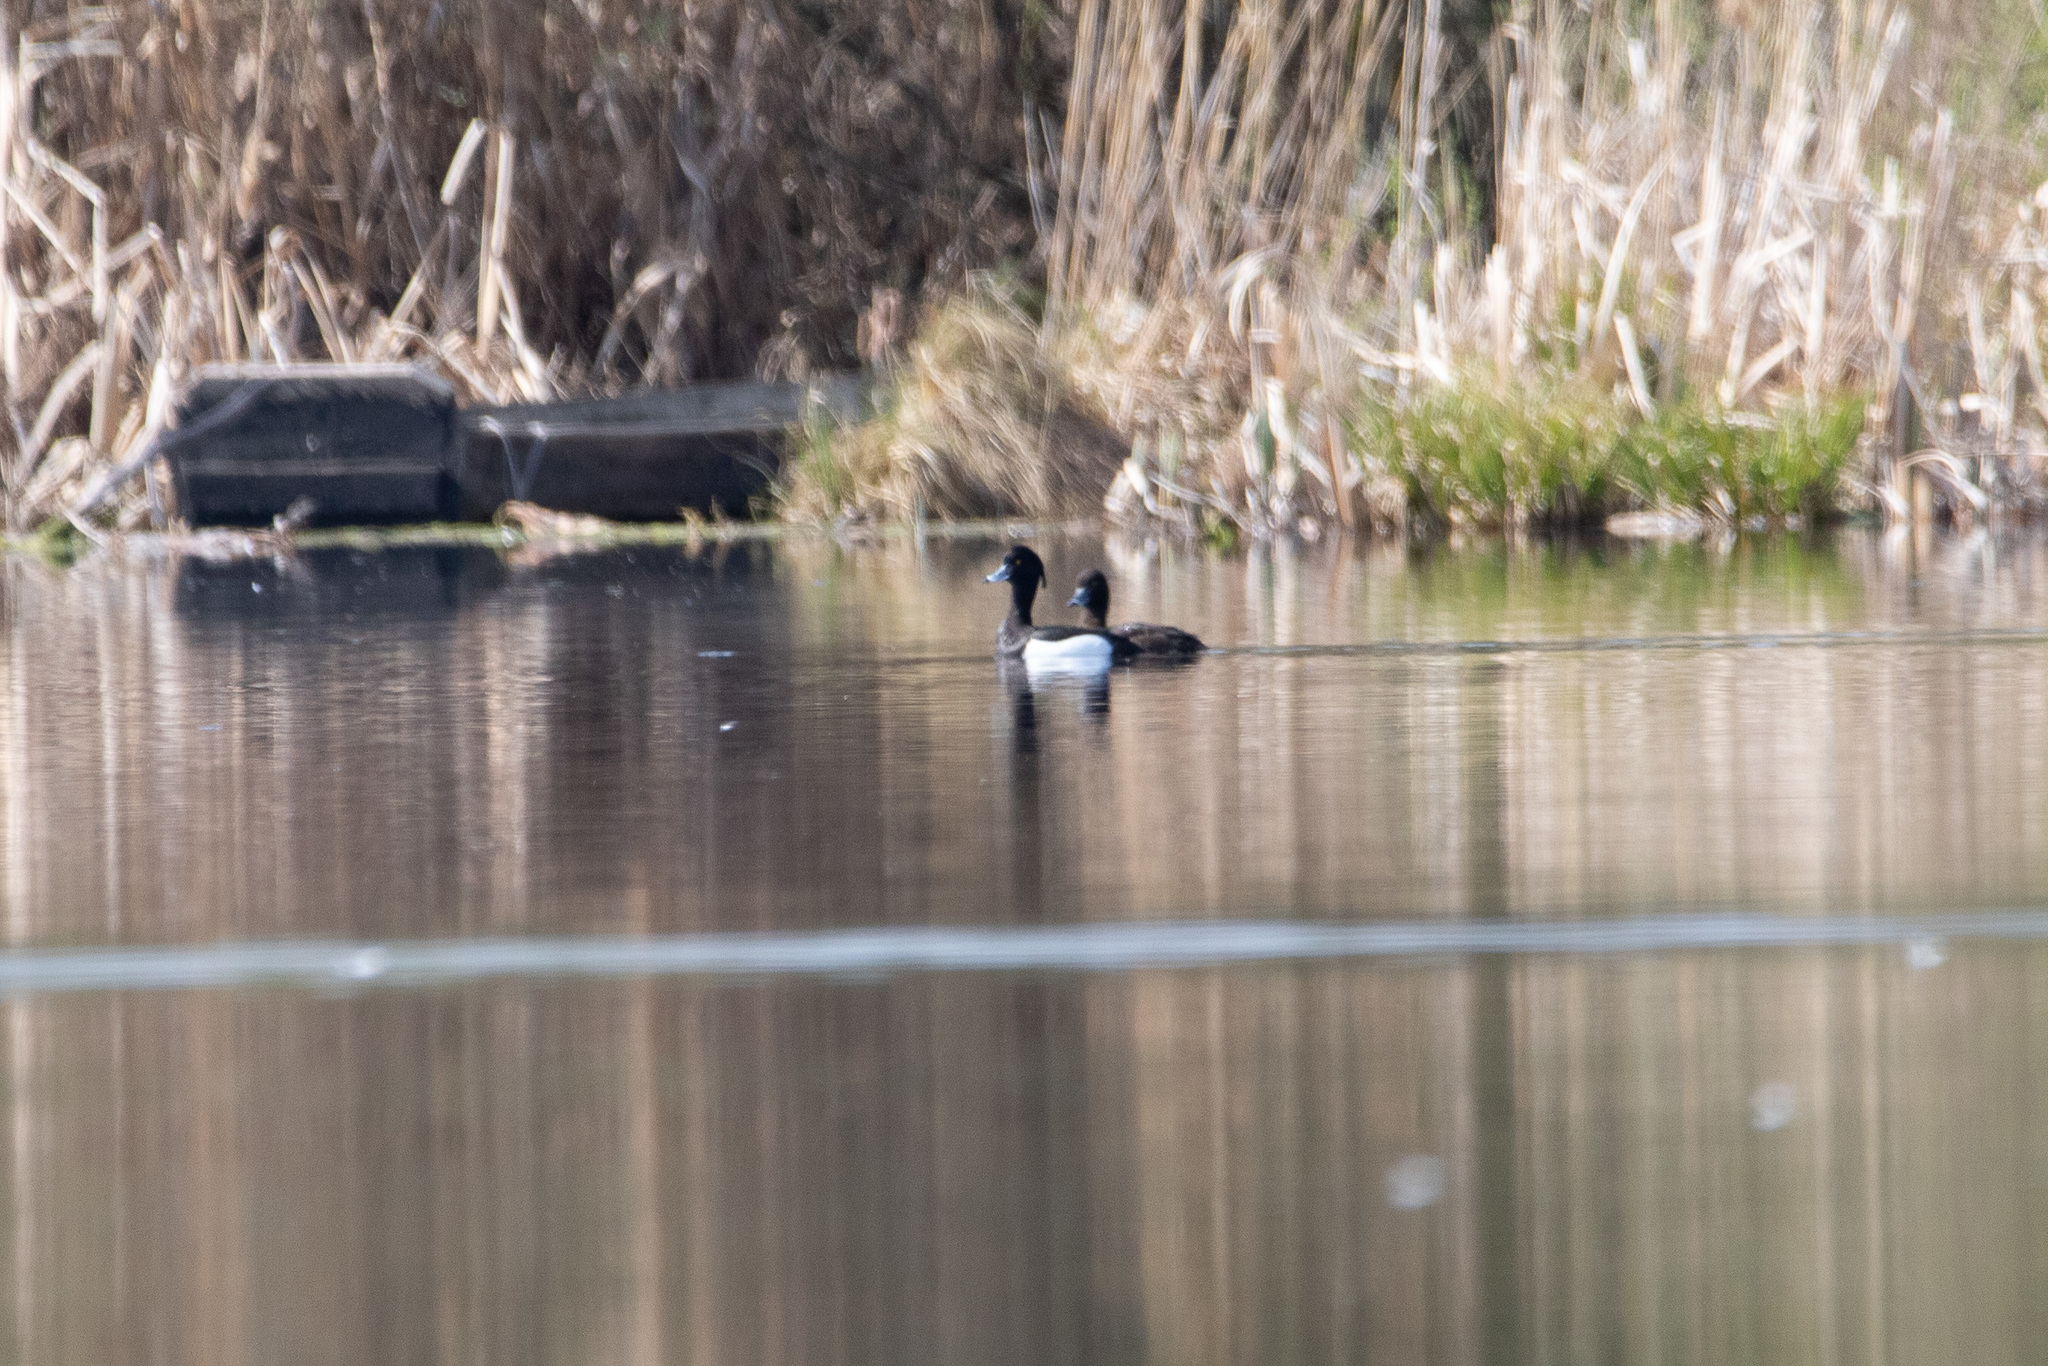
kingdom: Animalia
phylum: Chordata
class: Aves
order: Anseriformes
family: Anatidae
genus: Aythya
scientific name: Aythya fuligula
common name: Tufted duck
